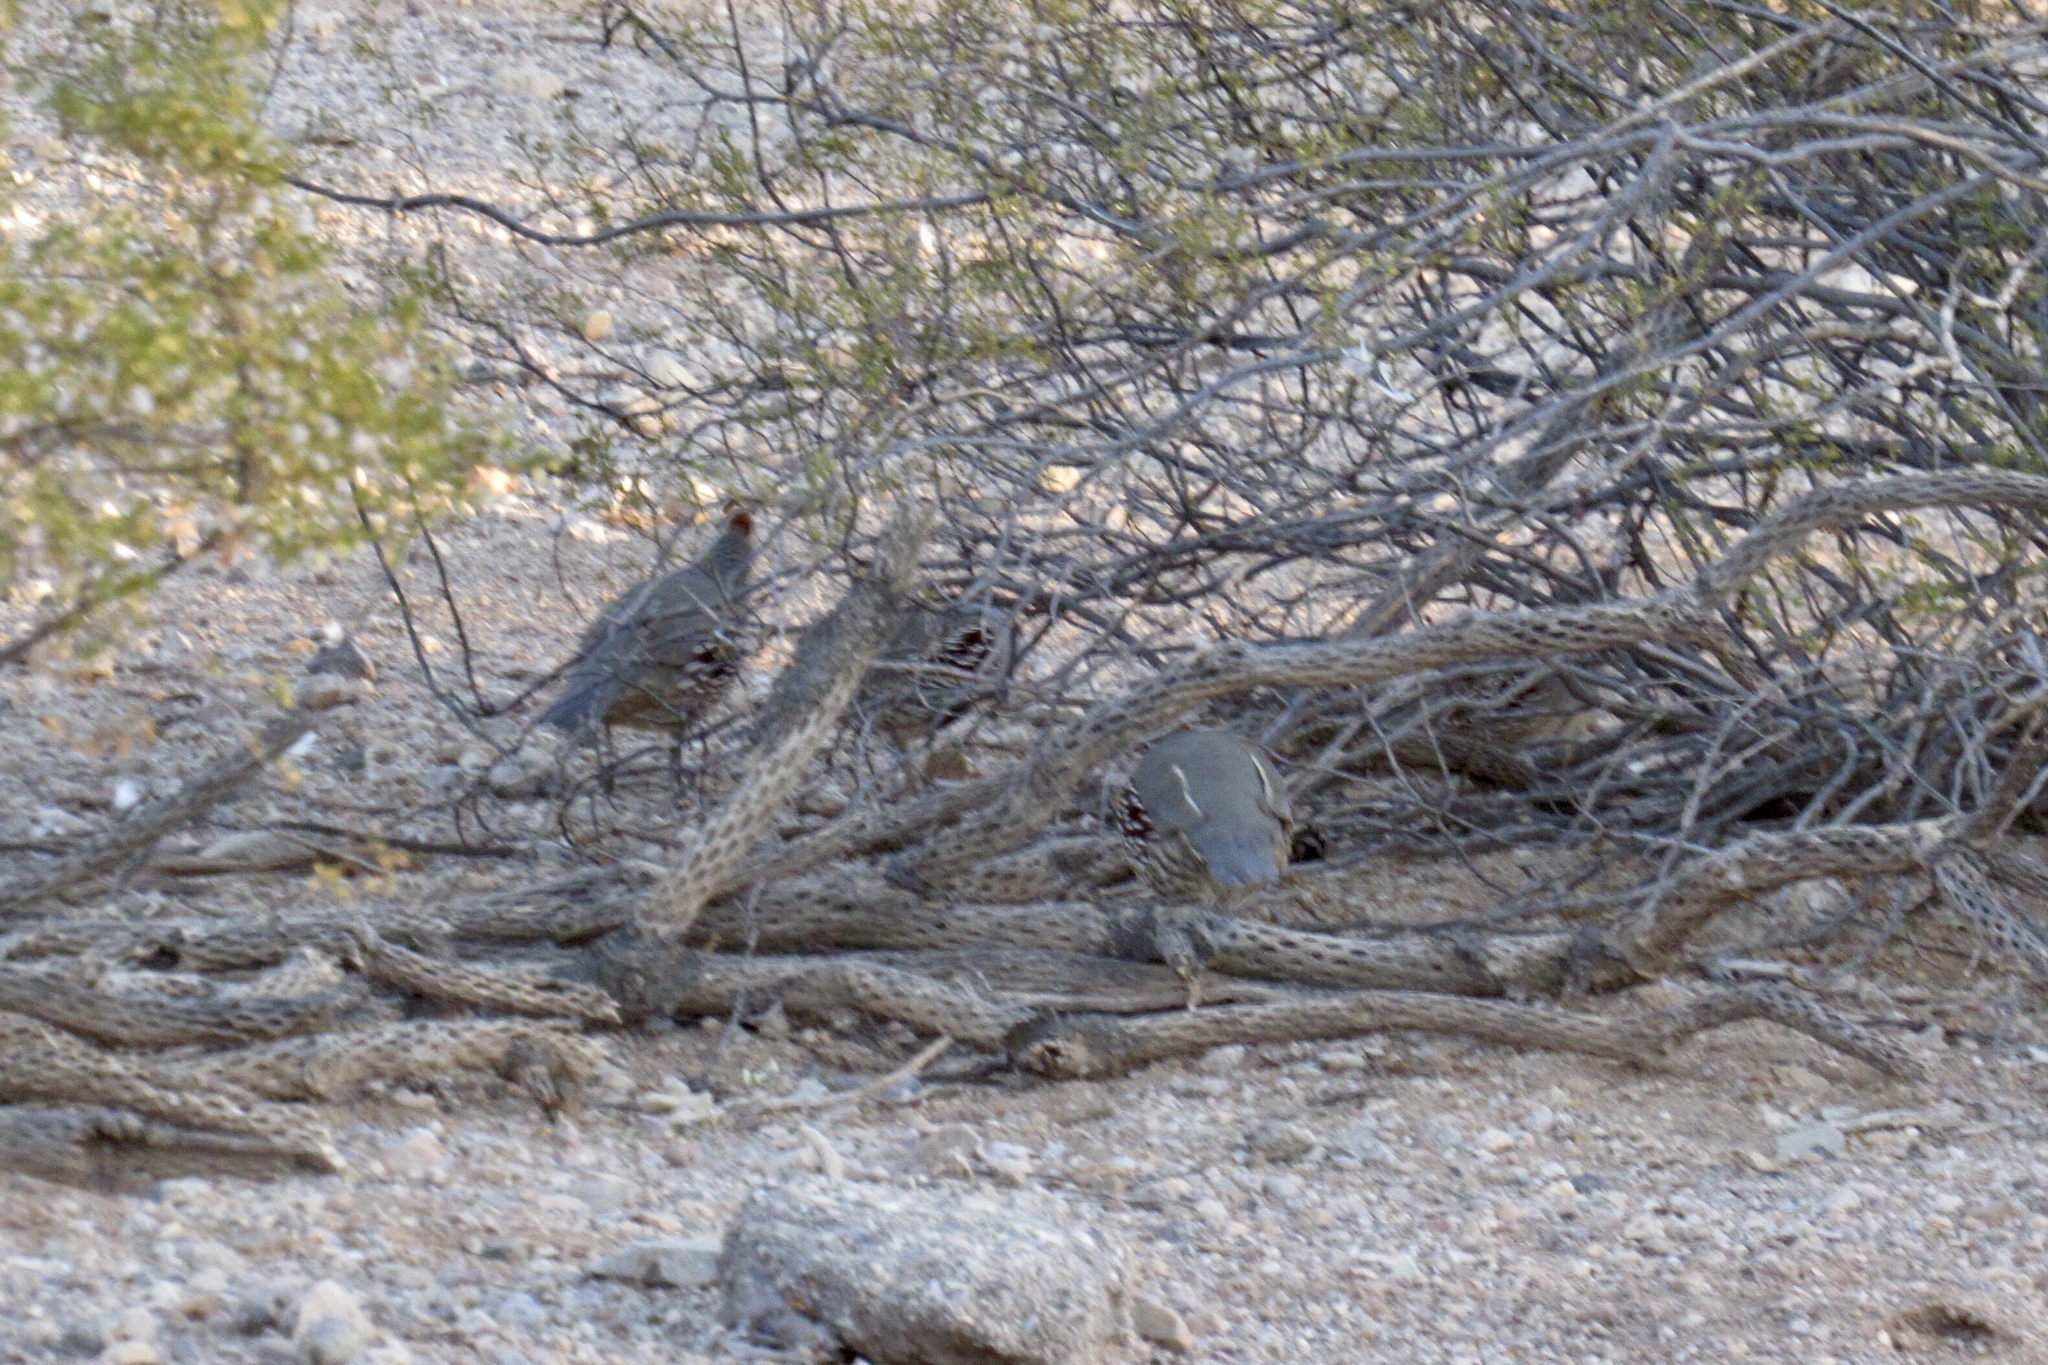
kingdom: Animalia
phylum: Chordata
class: Aves
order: Galliformes
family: Odontophoridae
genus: Callipepla
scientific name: Callipepla gambelii
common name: Gambel's quail
